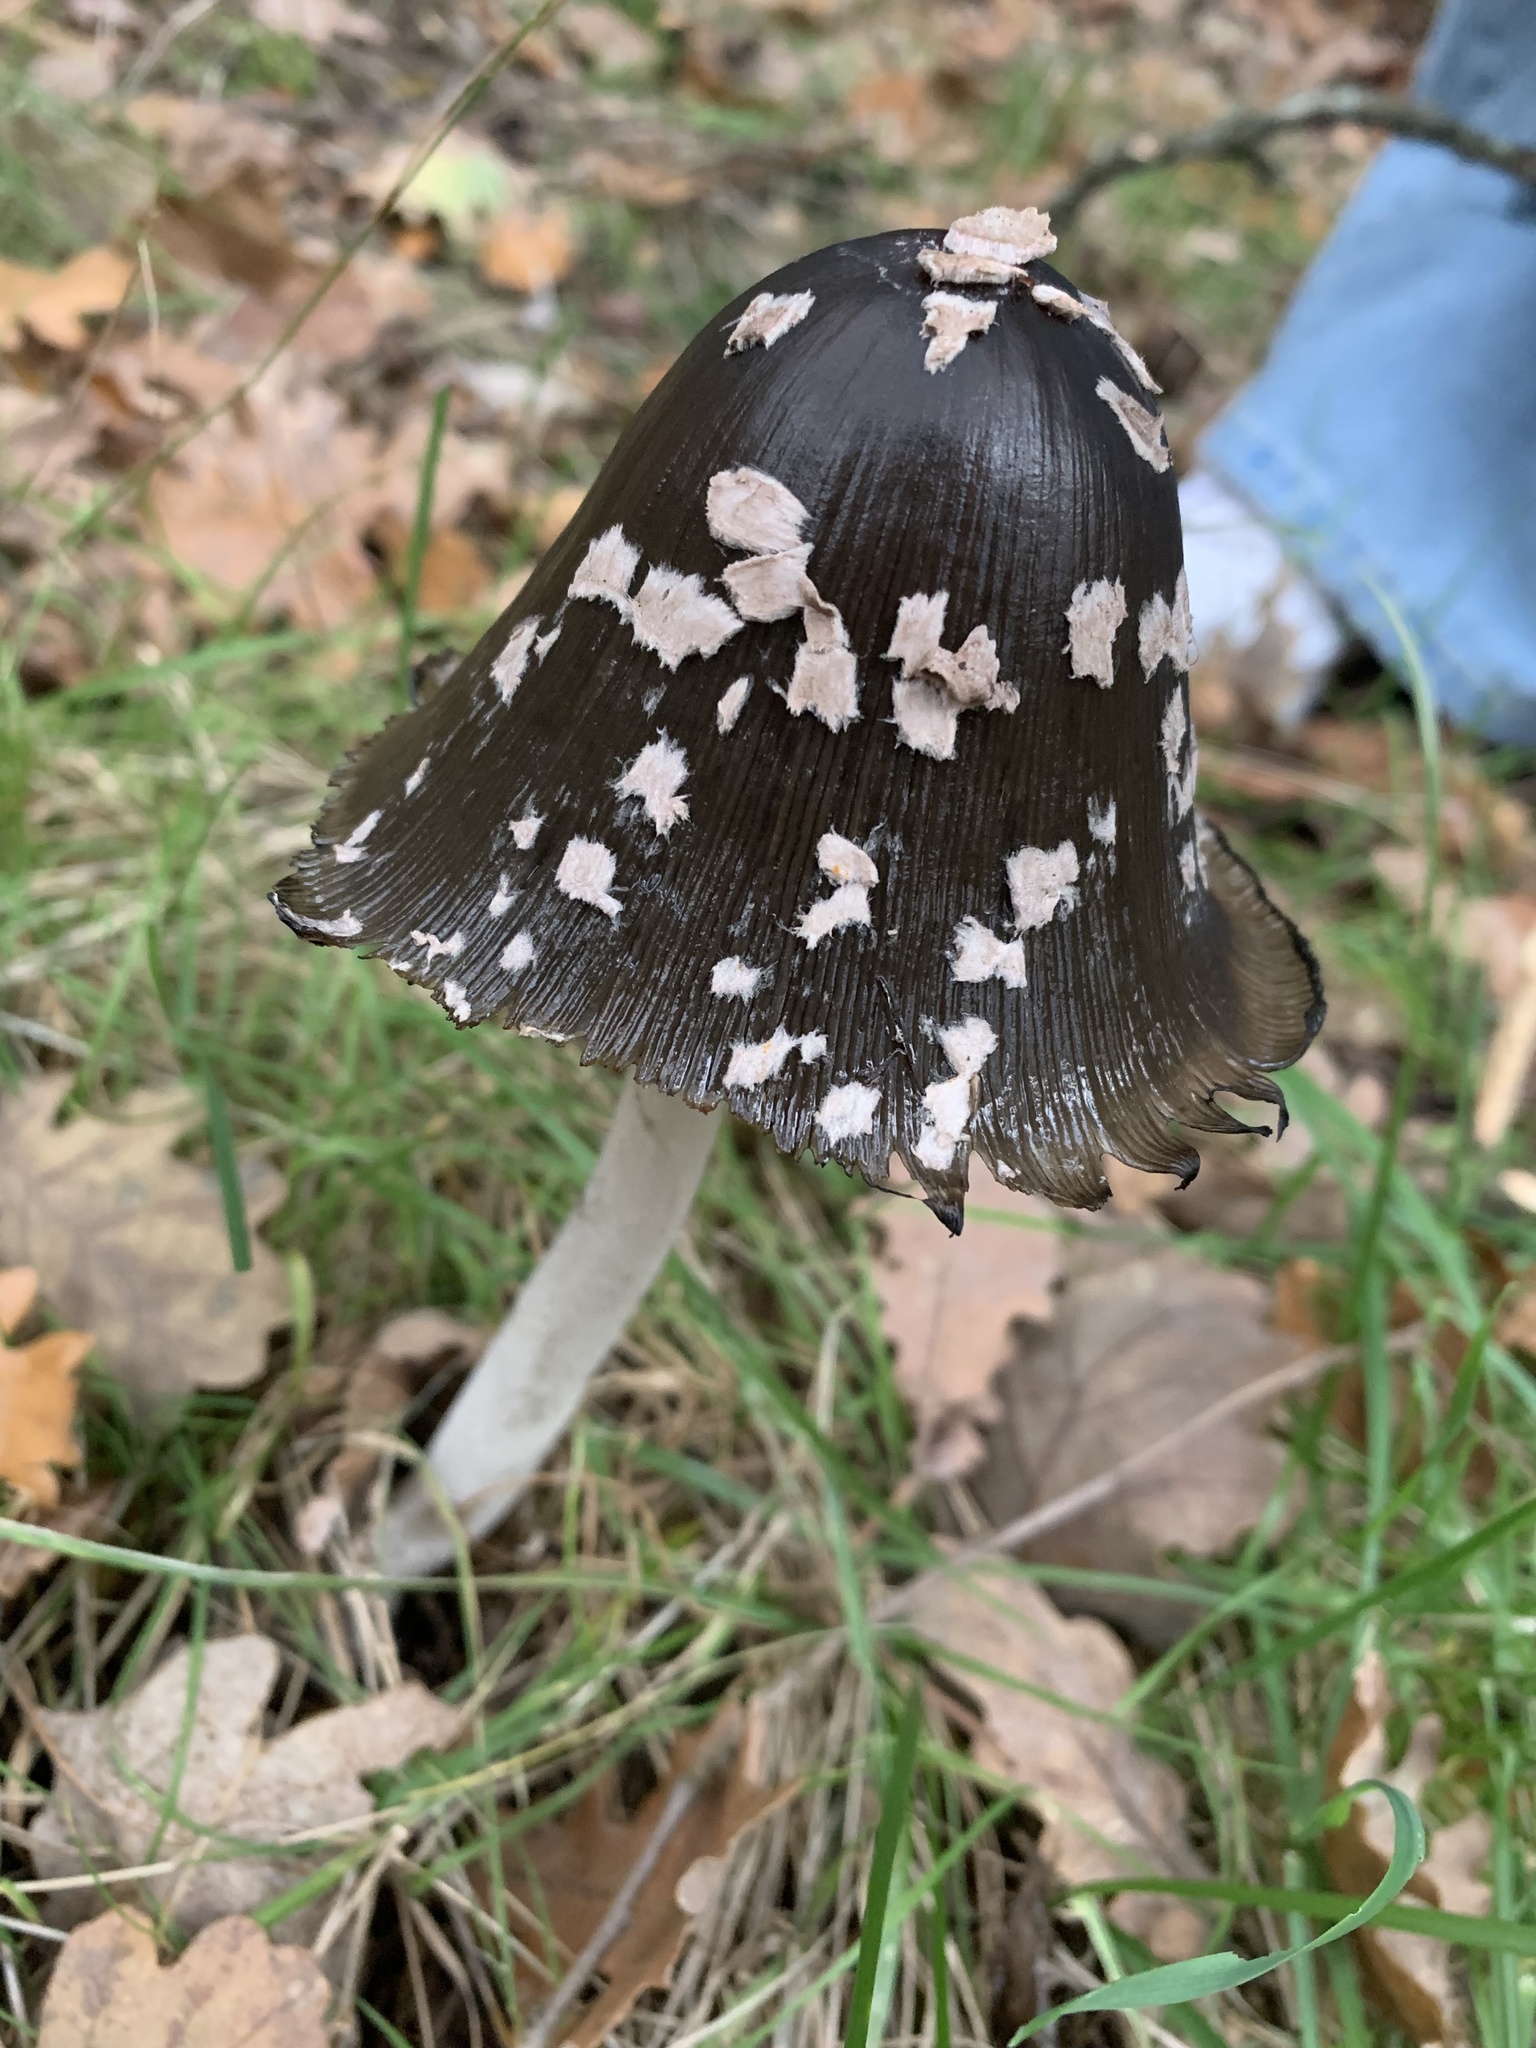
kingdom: Fungi
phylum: Basidiomycota
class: Agaricomycetes
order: Agaricales
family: Psathyrellaceae
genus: Coprinopsis
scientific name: Coprinopsis picacea
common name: Magpie inkcap
